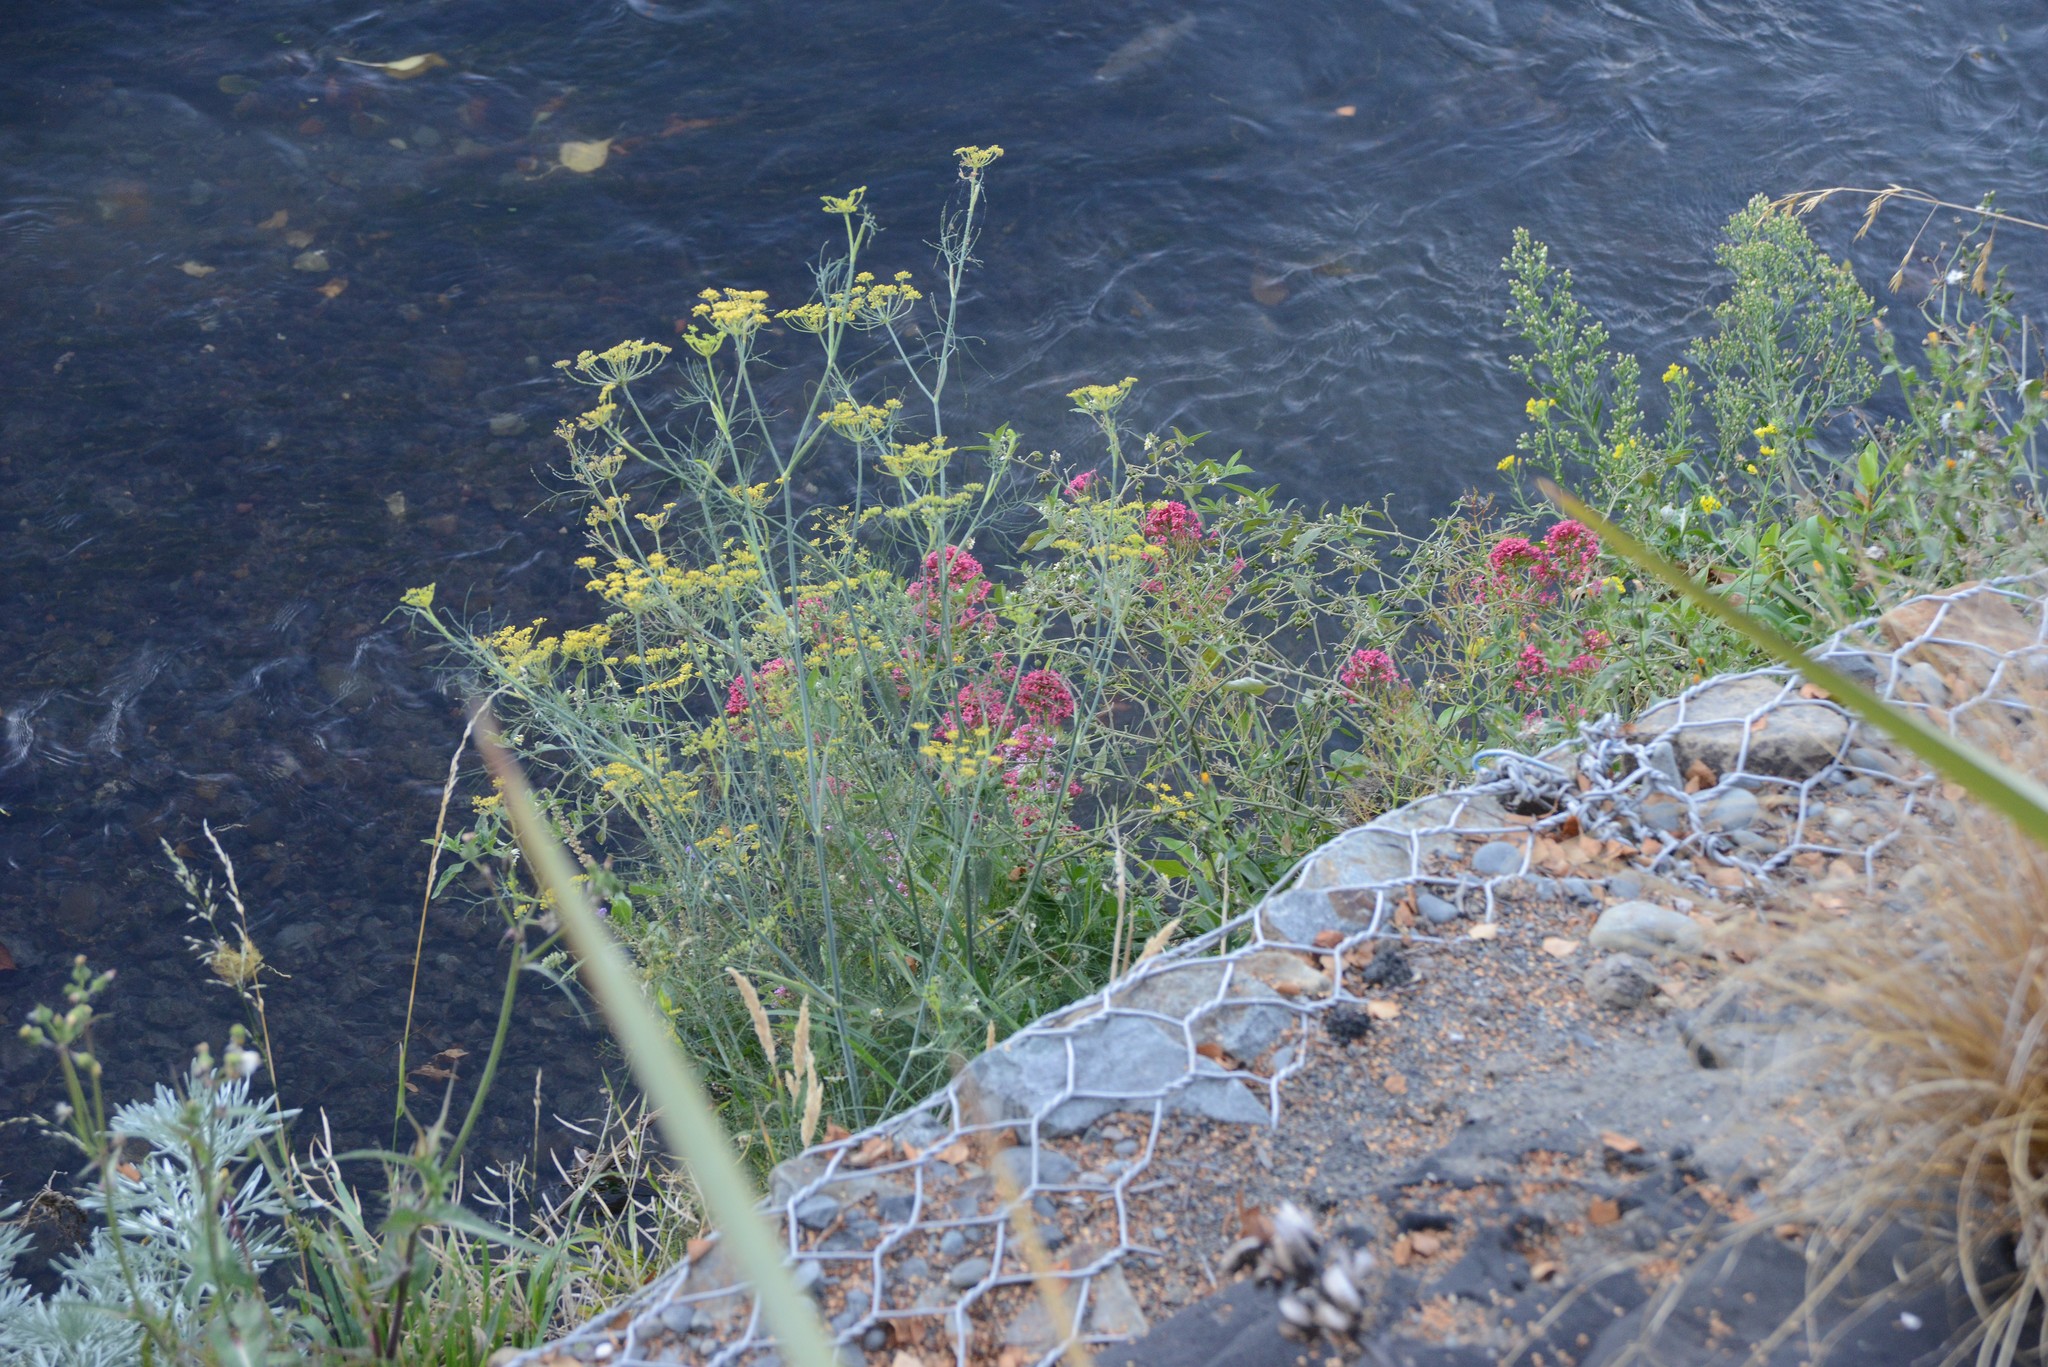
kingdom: Plantae
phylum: Tracheophyta
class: Magnoliopsida
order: Apiales
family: Apiaceae
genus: Foeniculum
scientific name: Foeniculum vulgare
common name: Fennel
